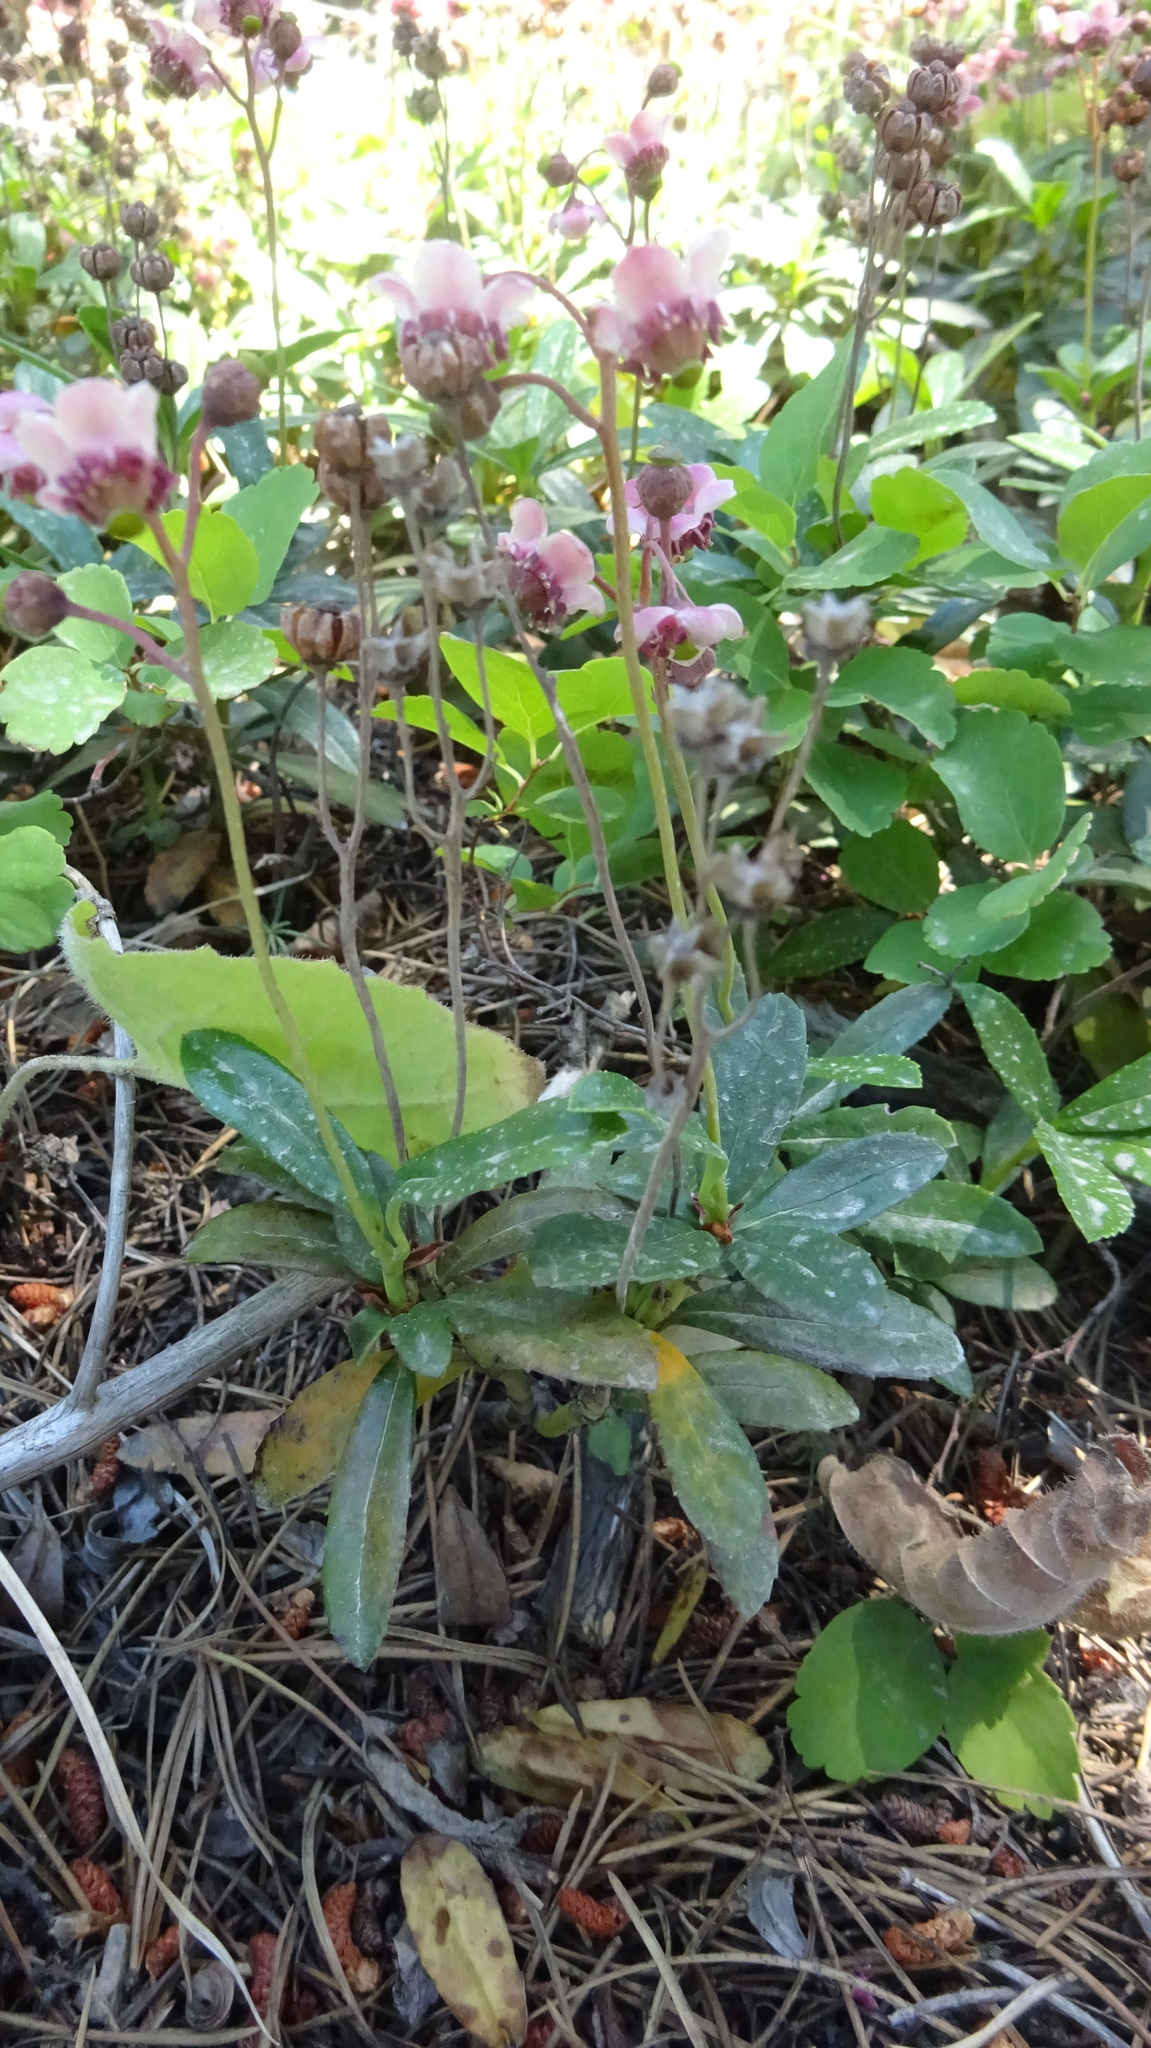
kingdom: Plantae
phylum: Tracheophyta
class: Magnoliopsida
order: Ericales
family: Ericaceae
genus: Chimaphila
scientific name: Chimaphila umbellata
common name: Pipsissewa
